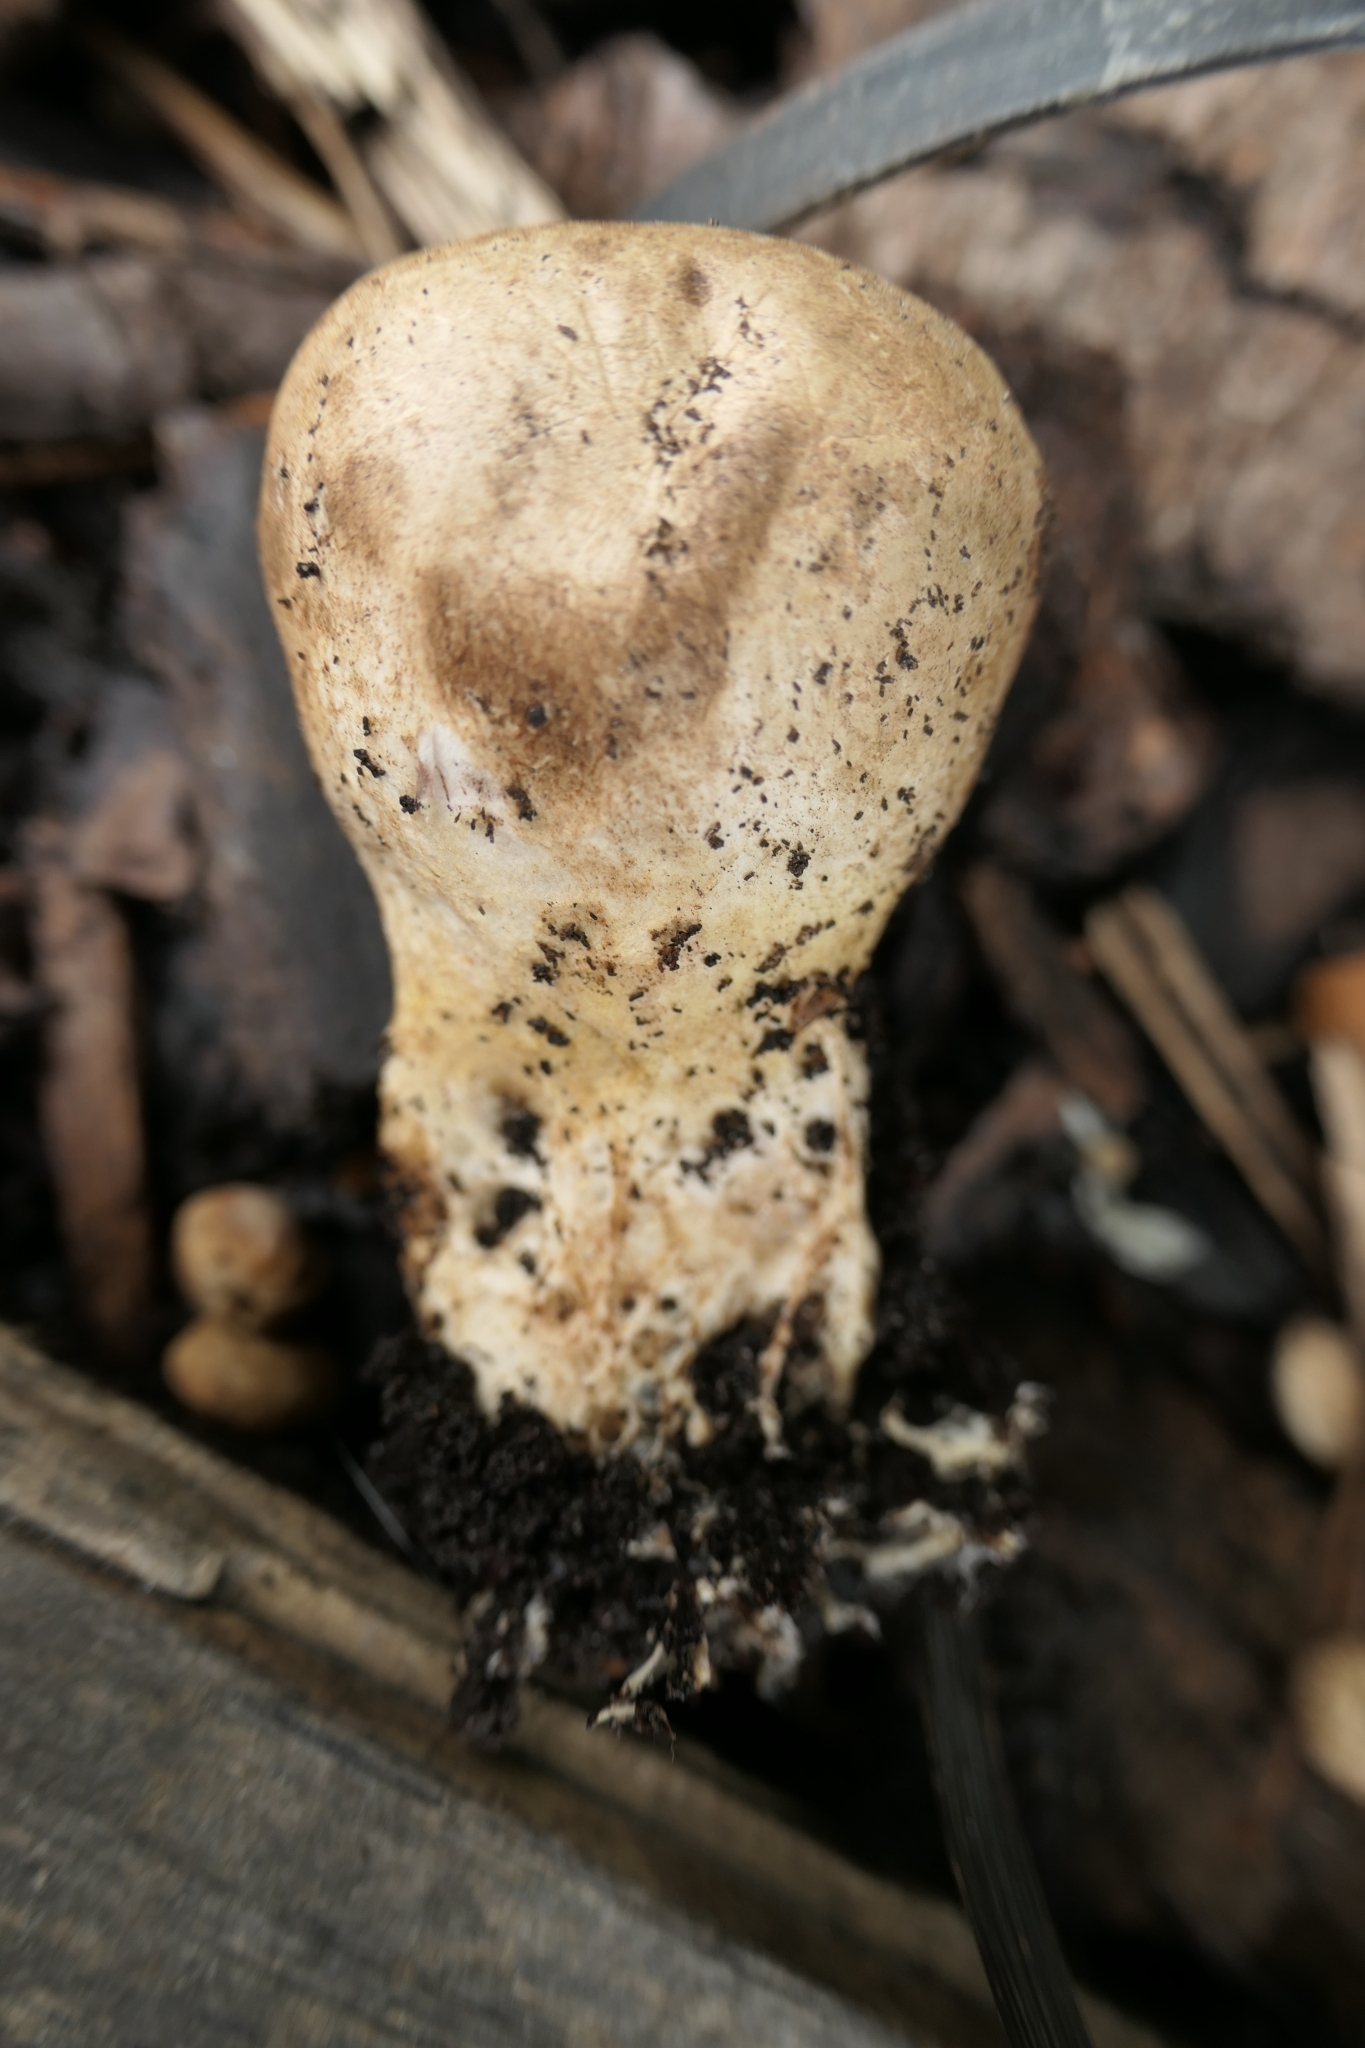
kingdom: Fungi
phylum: Basidiomycota
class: Agaricomycetes
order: Boletales
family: Sclerodermataceae
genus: Scleroderma
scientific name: Scleroderma bovista
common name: Potato earthball
